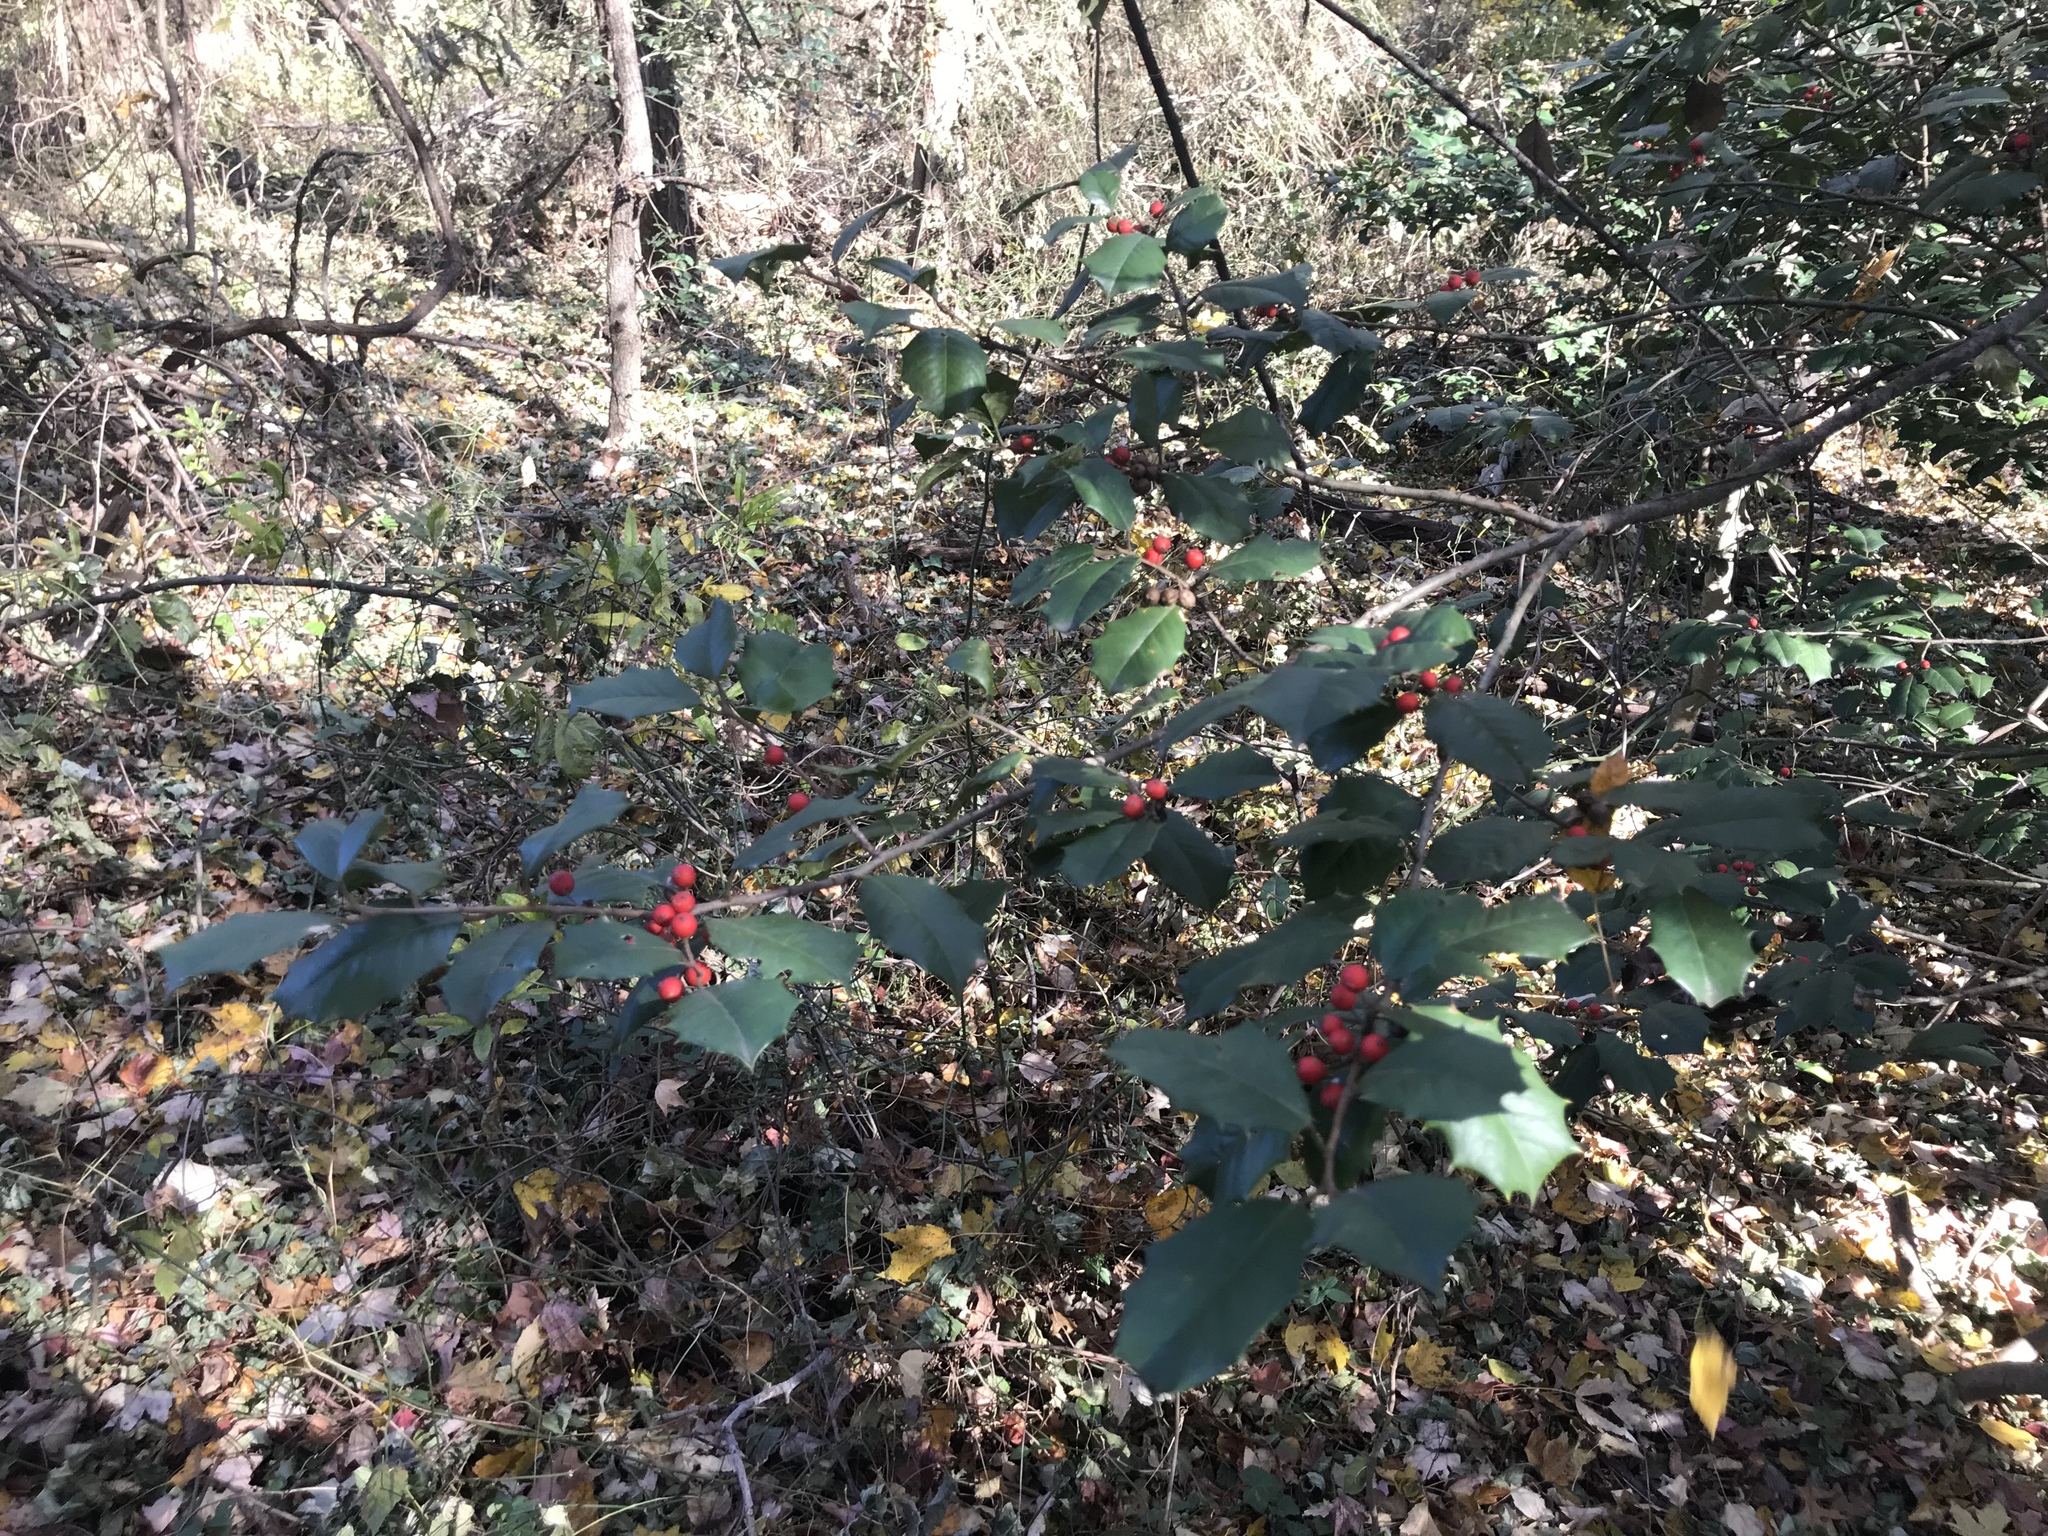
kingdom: Plantae
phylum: Tracheophyta
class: Magnoliopsida
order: Aquifoliales
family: Aquifoliaceae
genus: Ilex
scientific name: Ilex opaca
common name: American holly
